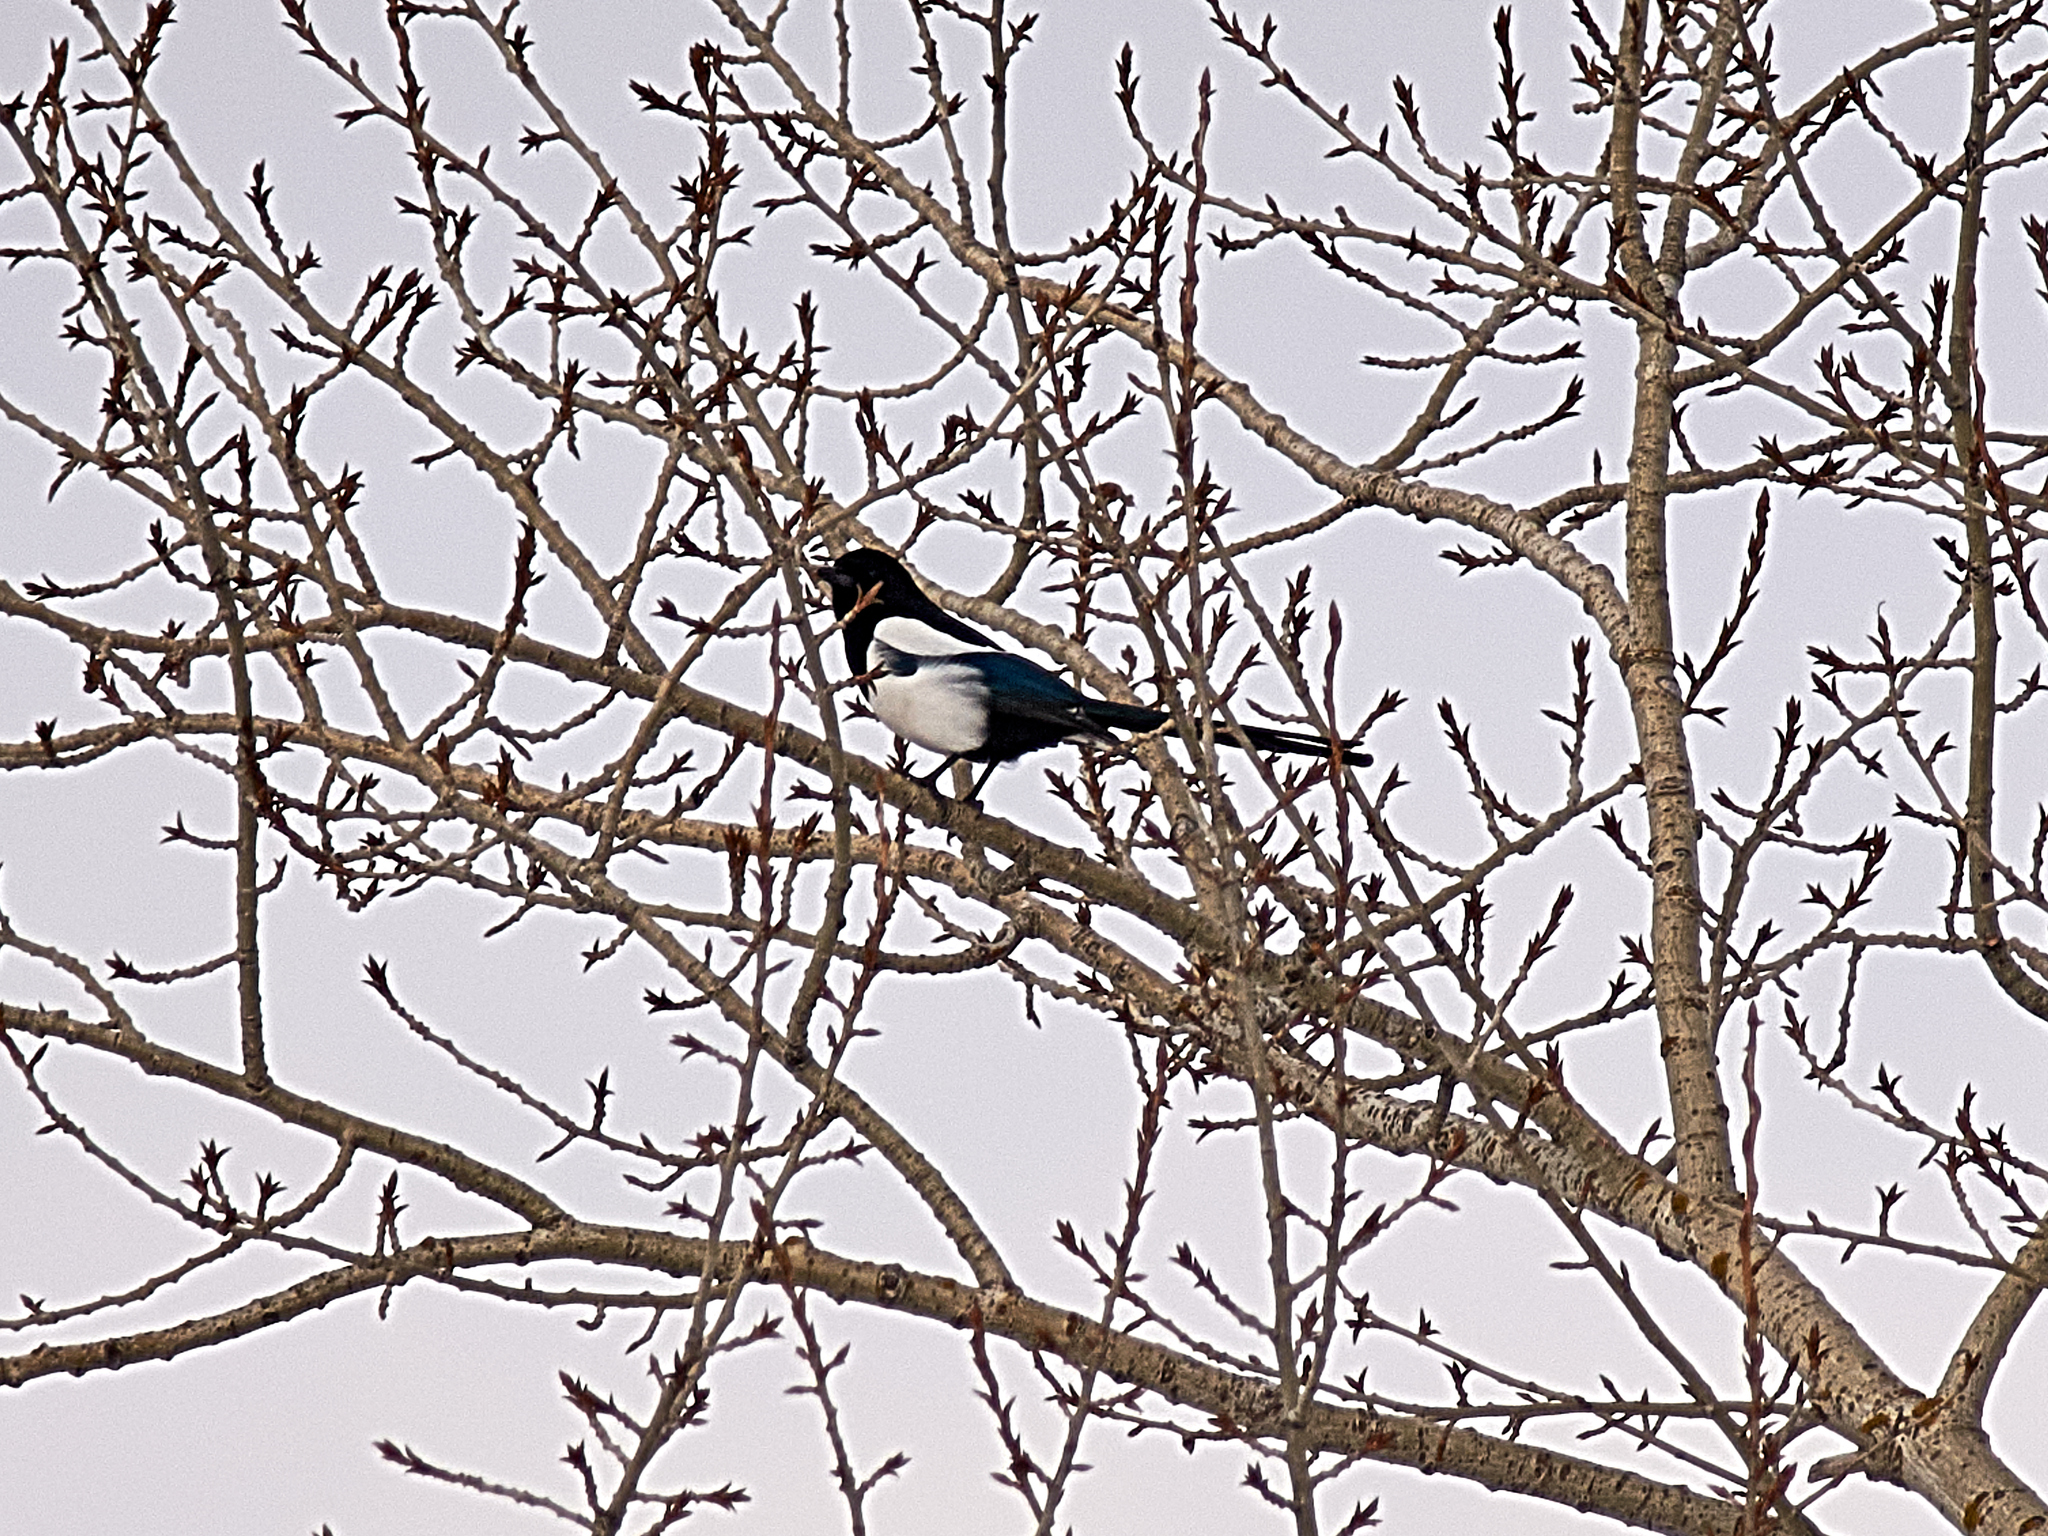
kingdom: Animalia
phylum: Chordata
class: Aves
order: Passeriformes
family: Corvidae
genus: Pica
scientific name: Pica pica
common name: Eurasian magpie
